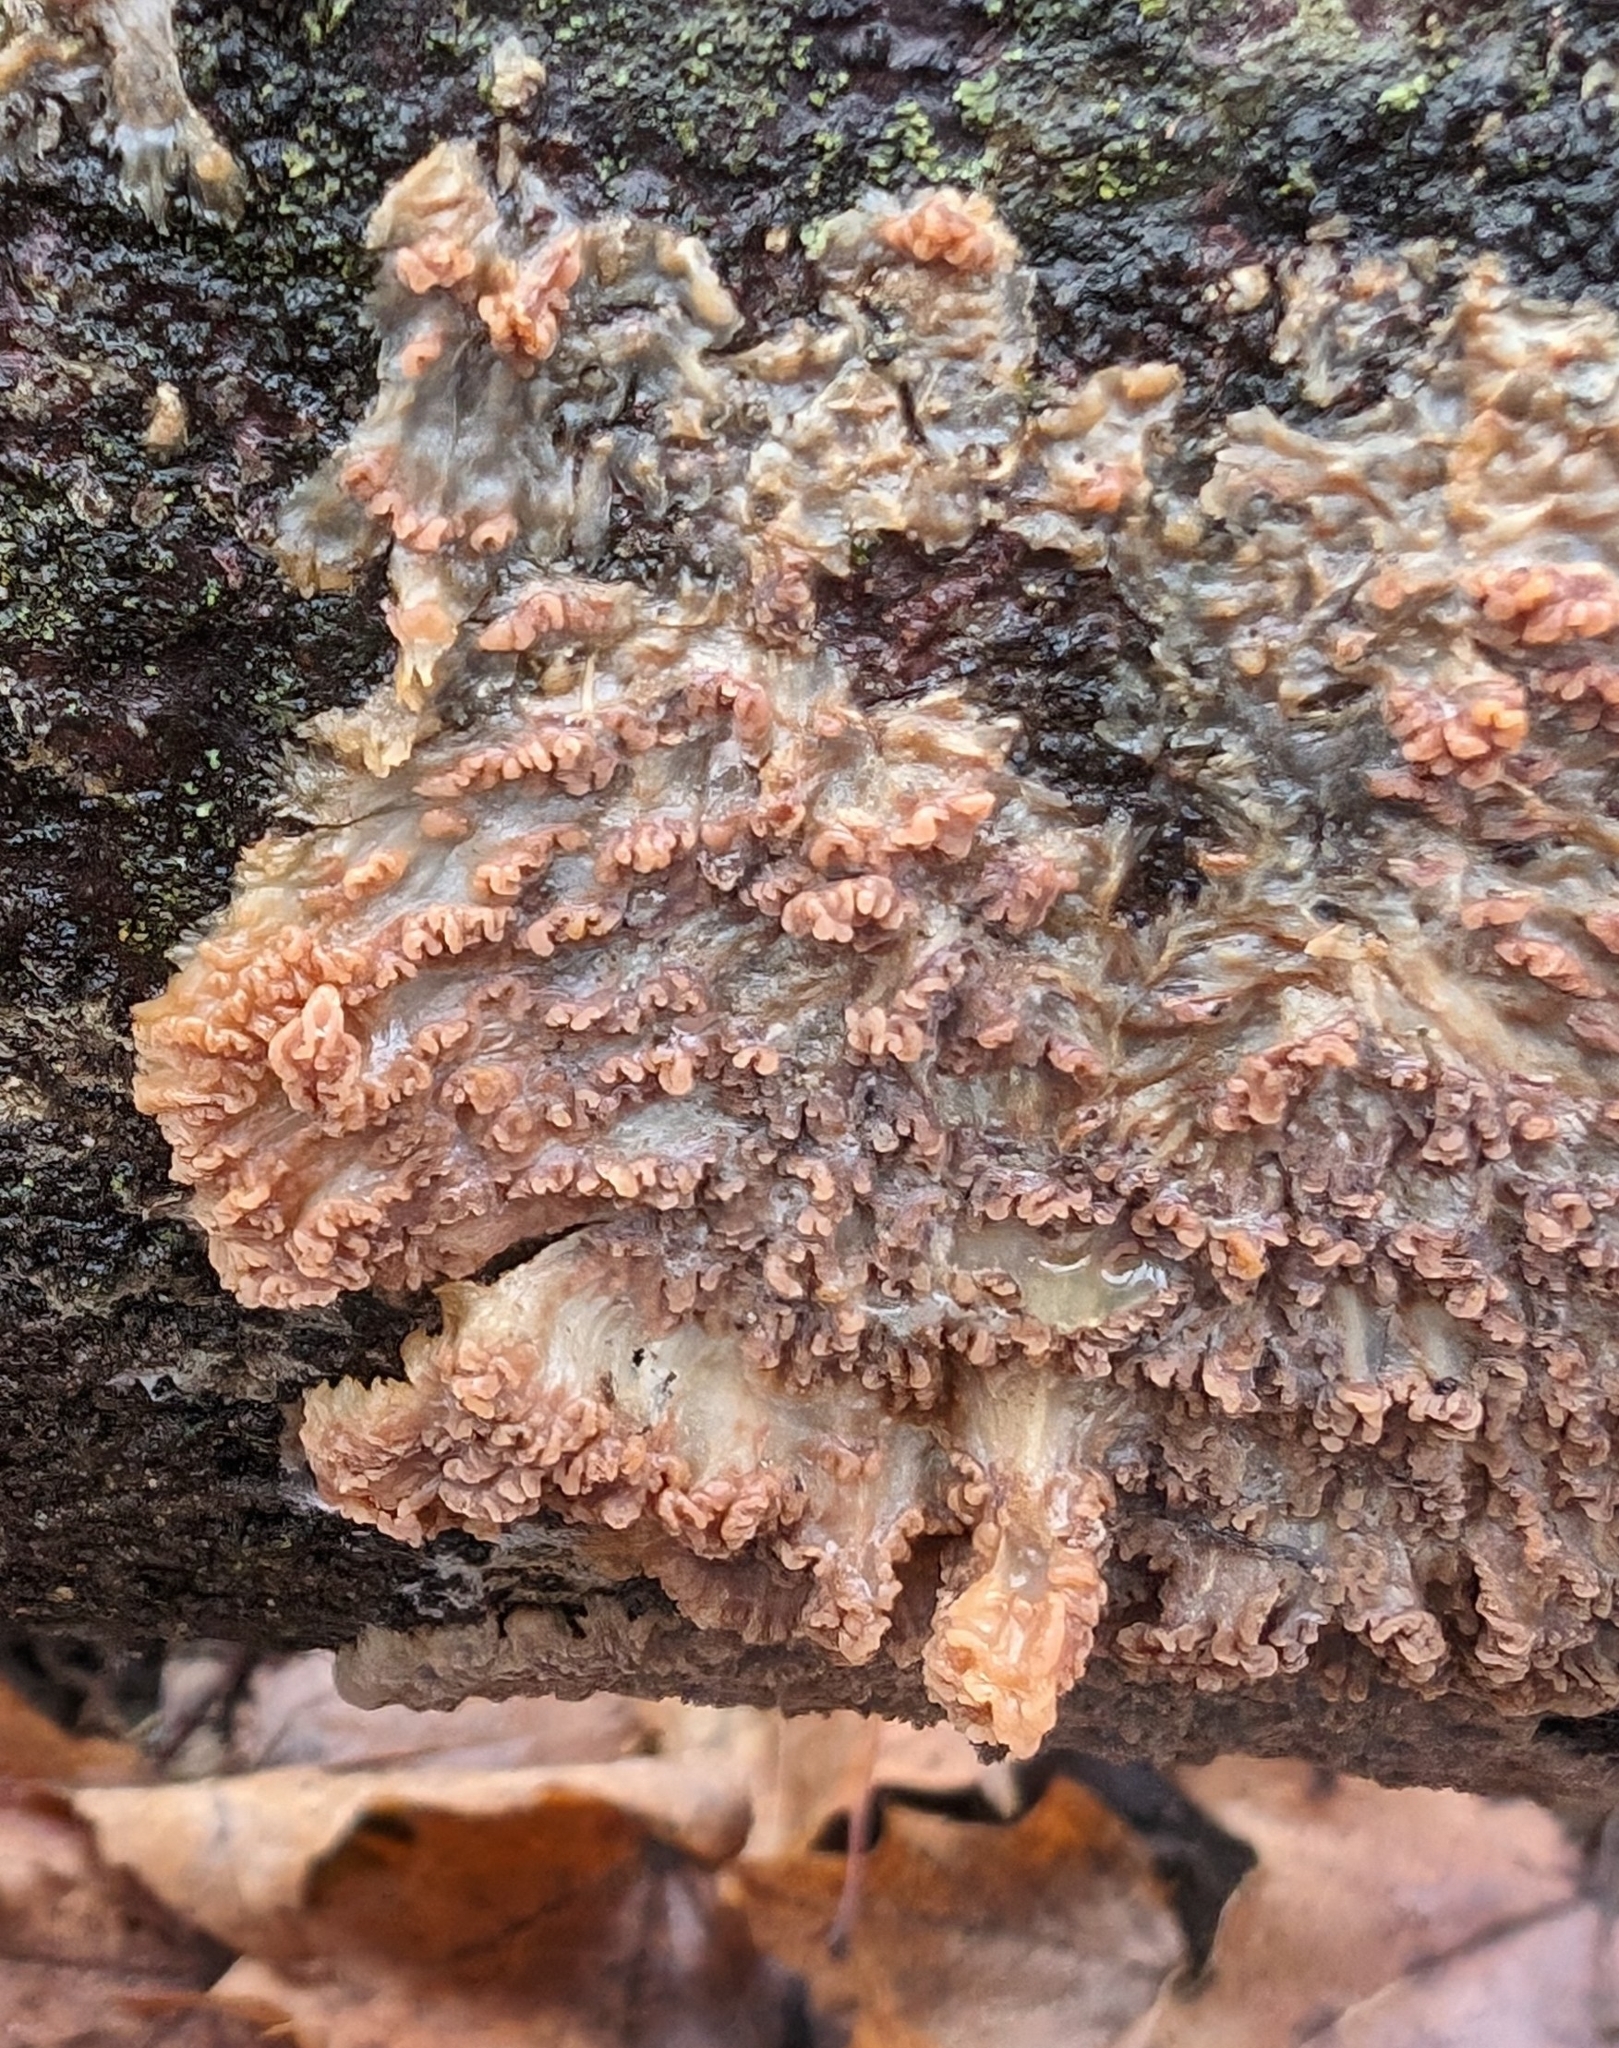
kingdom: Fungi
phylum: Basidiomycota
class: Agaricomycetes
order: Polyporales
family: Meruliaceae
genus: Phlebia
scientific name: Phlebia radiata
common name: Wrinkled crust
